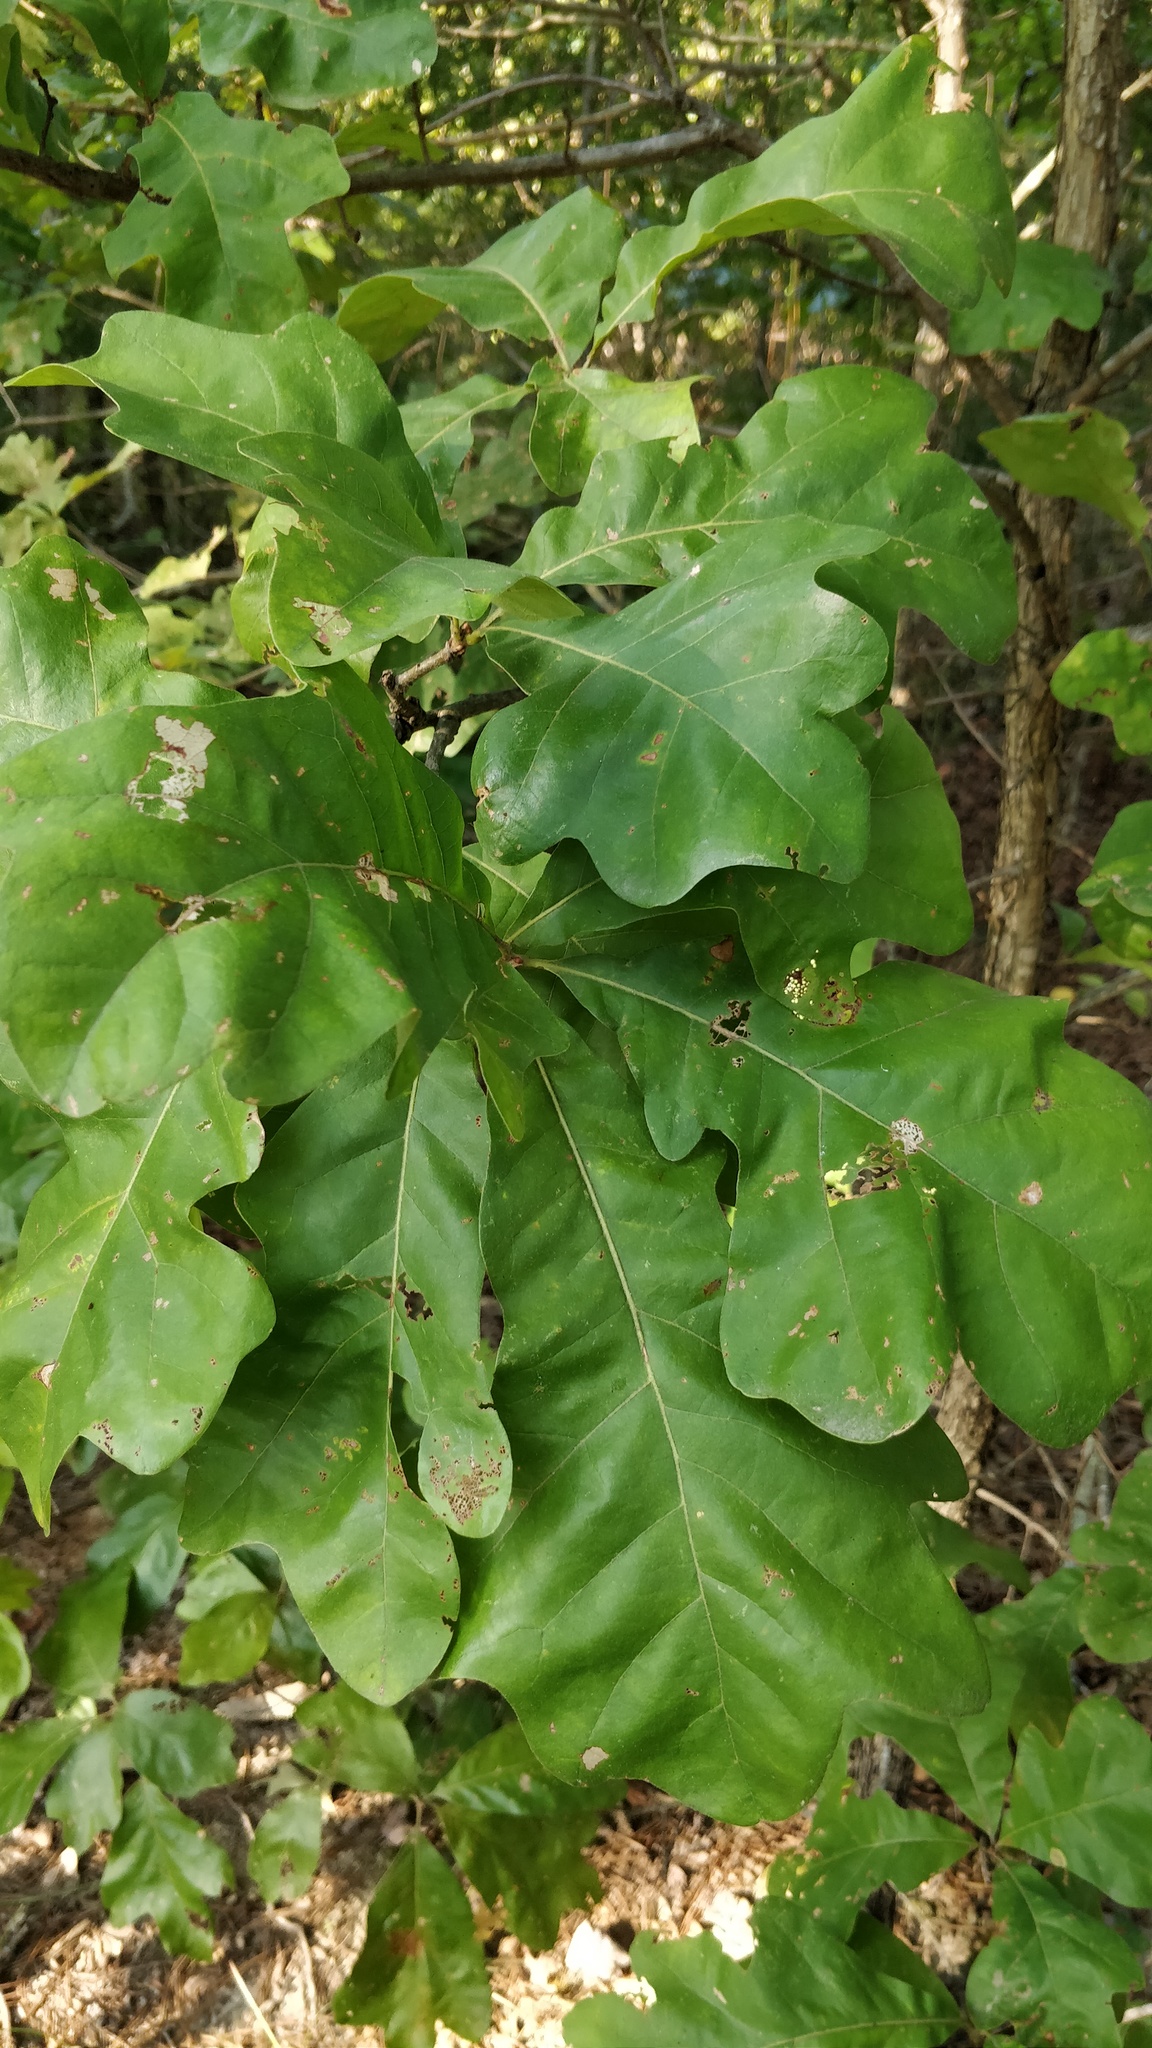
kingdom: Plantae
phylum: Tracheophyta
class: Magnoliopsida
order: Fagales
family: Fagaceae
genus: Quercus
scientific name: Quercus stellata
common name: Post oak
